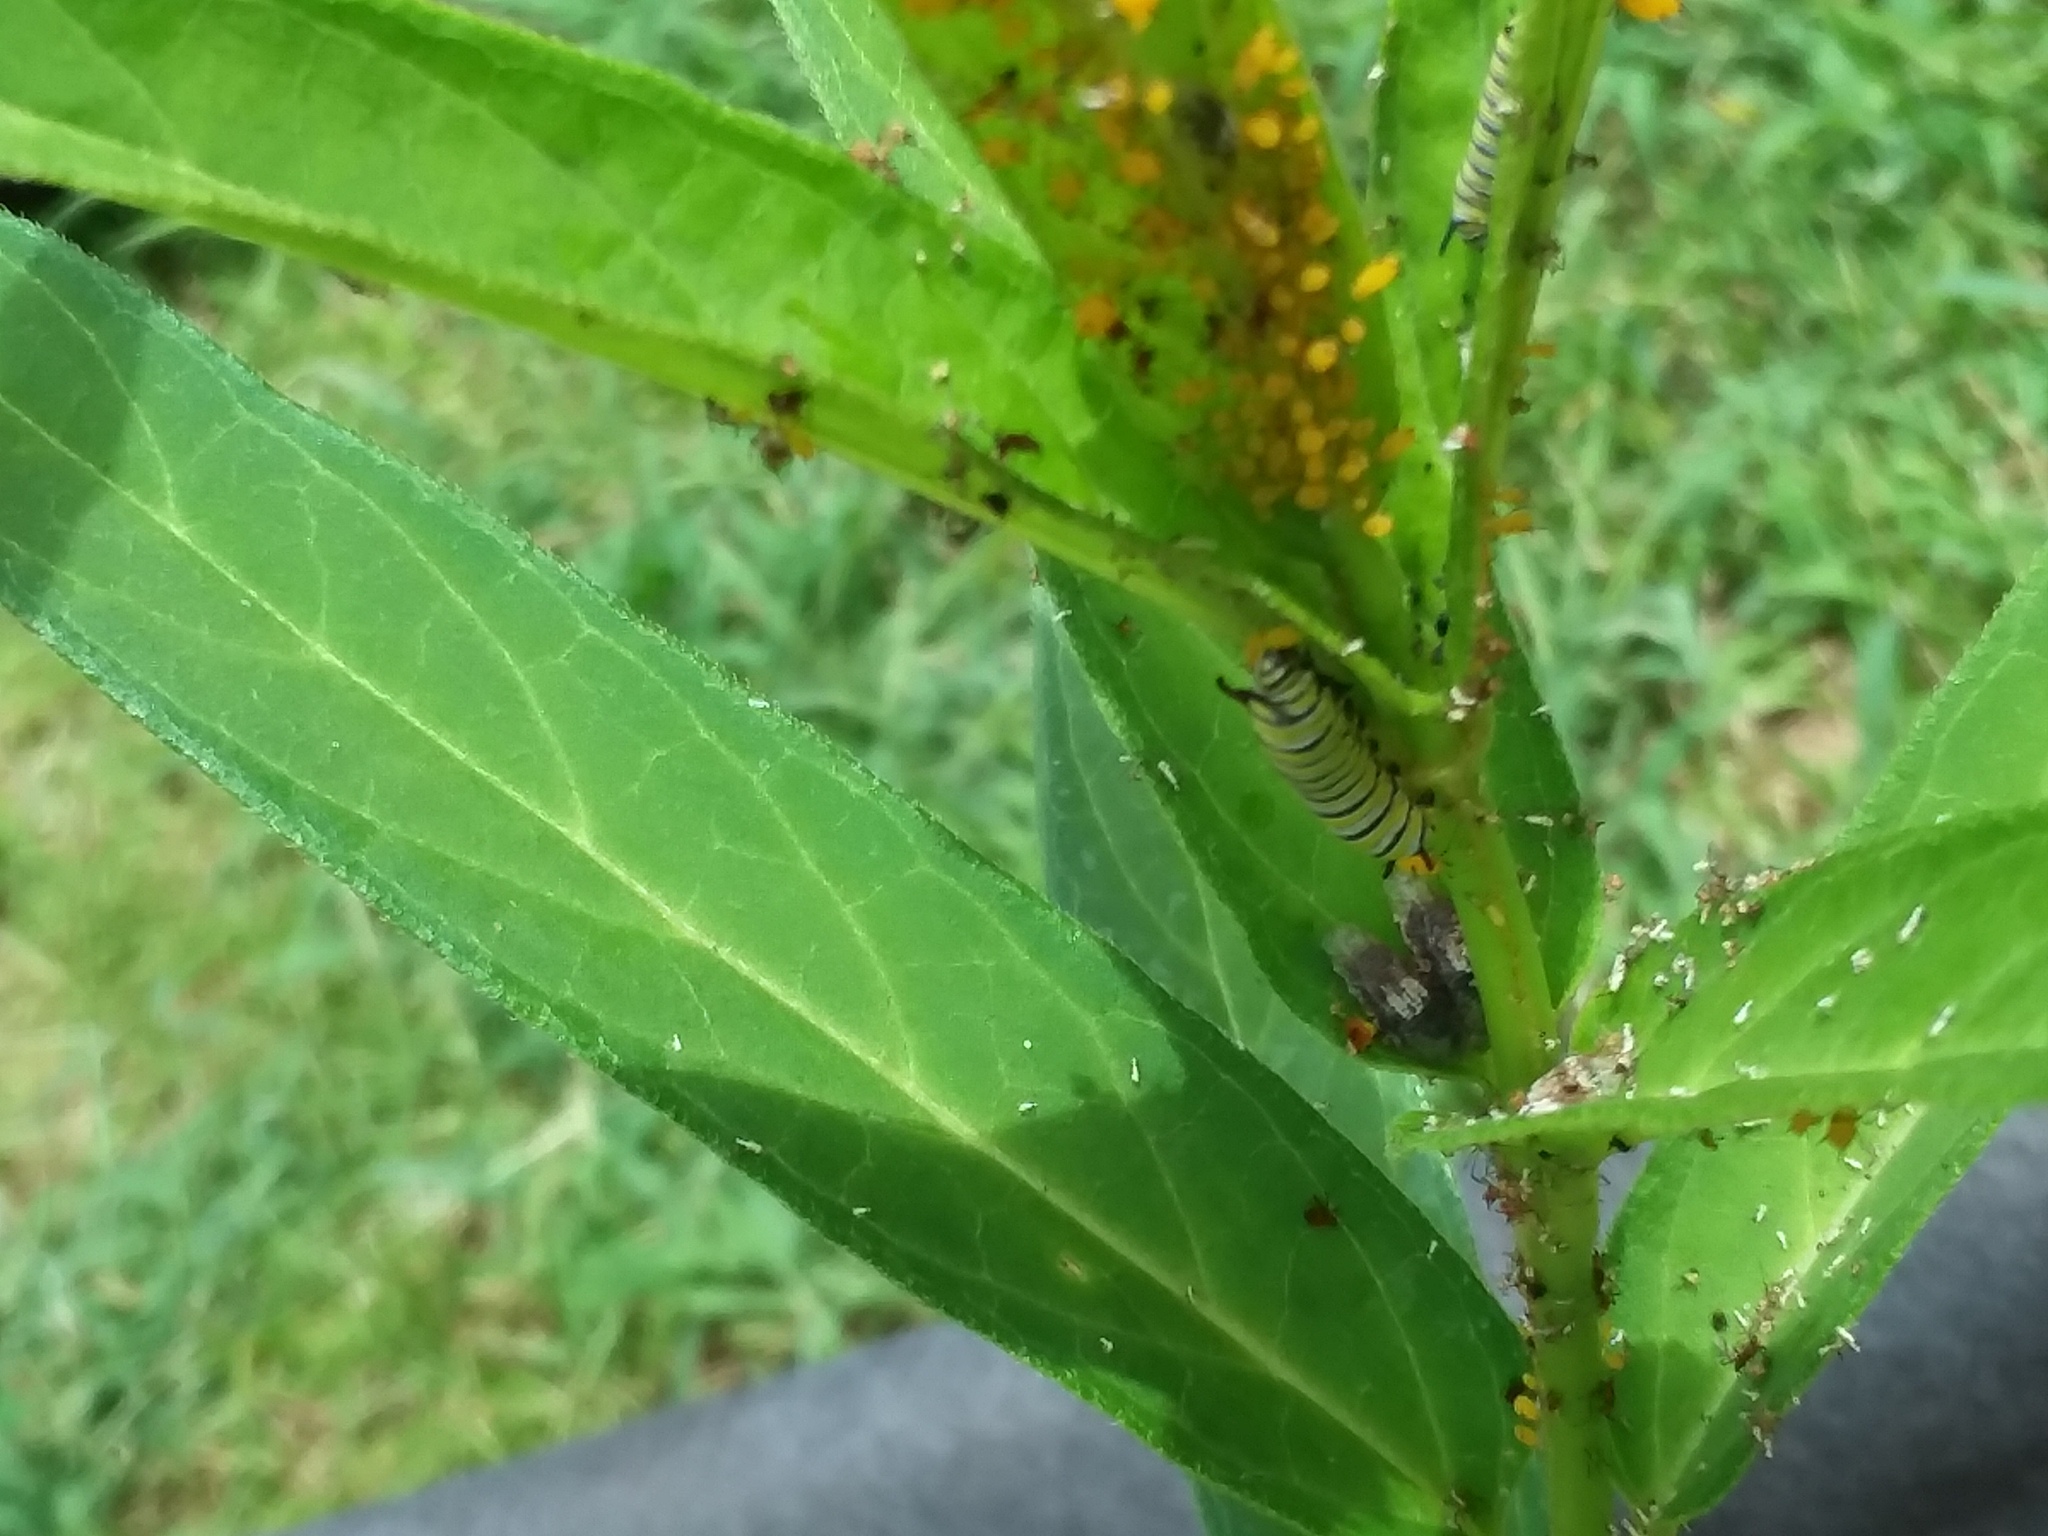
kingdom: Animalia
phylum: Arthropoda
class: Insecta
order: Lepidoptera
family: Nymphalidae
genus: Danaus
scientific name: Danaus plexippus
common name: Monarch
